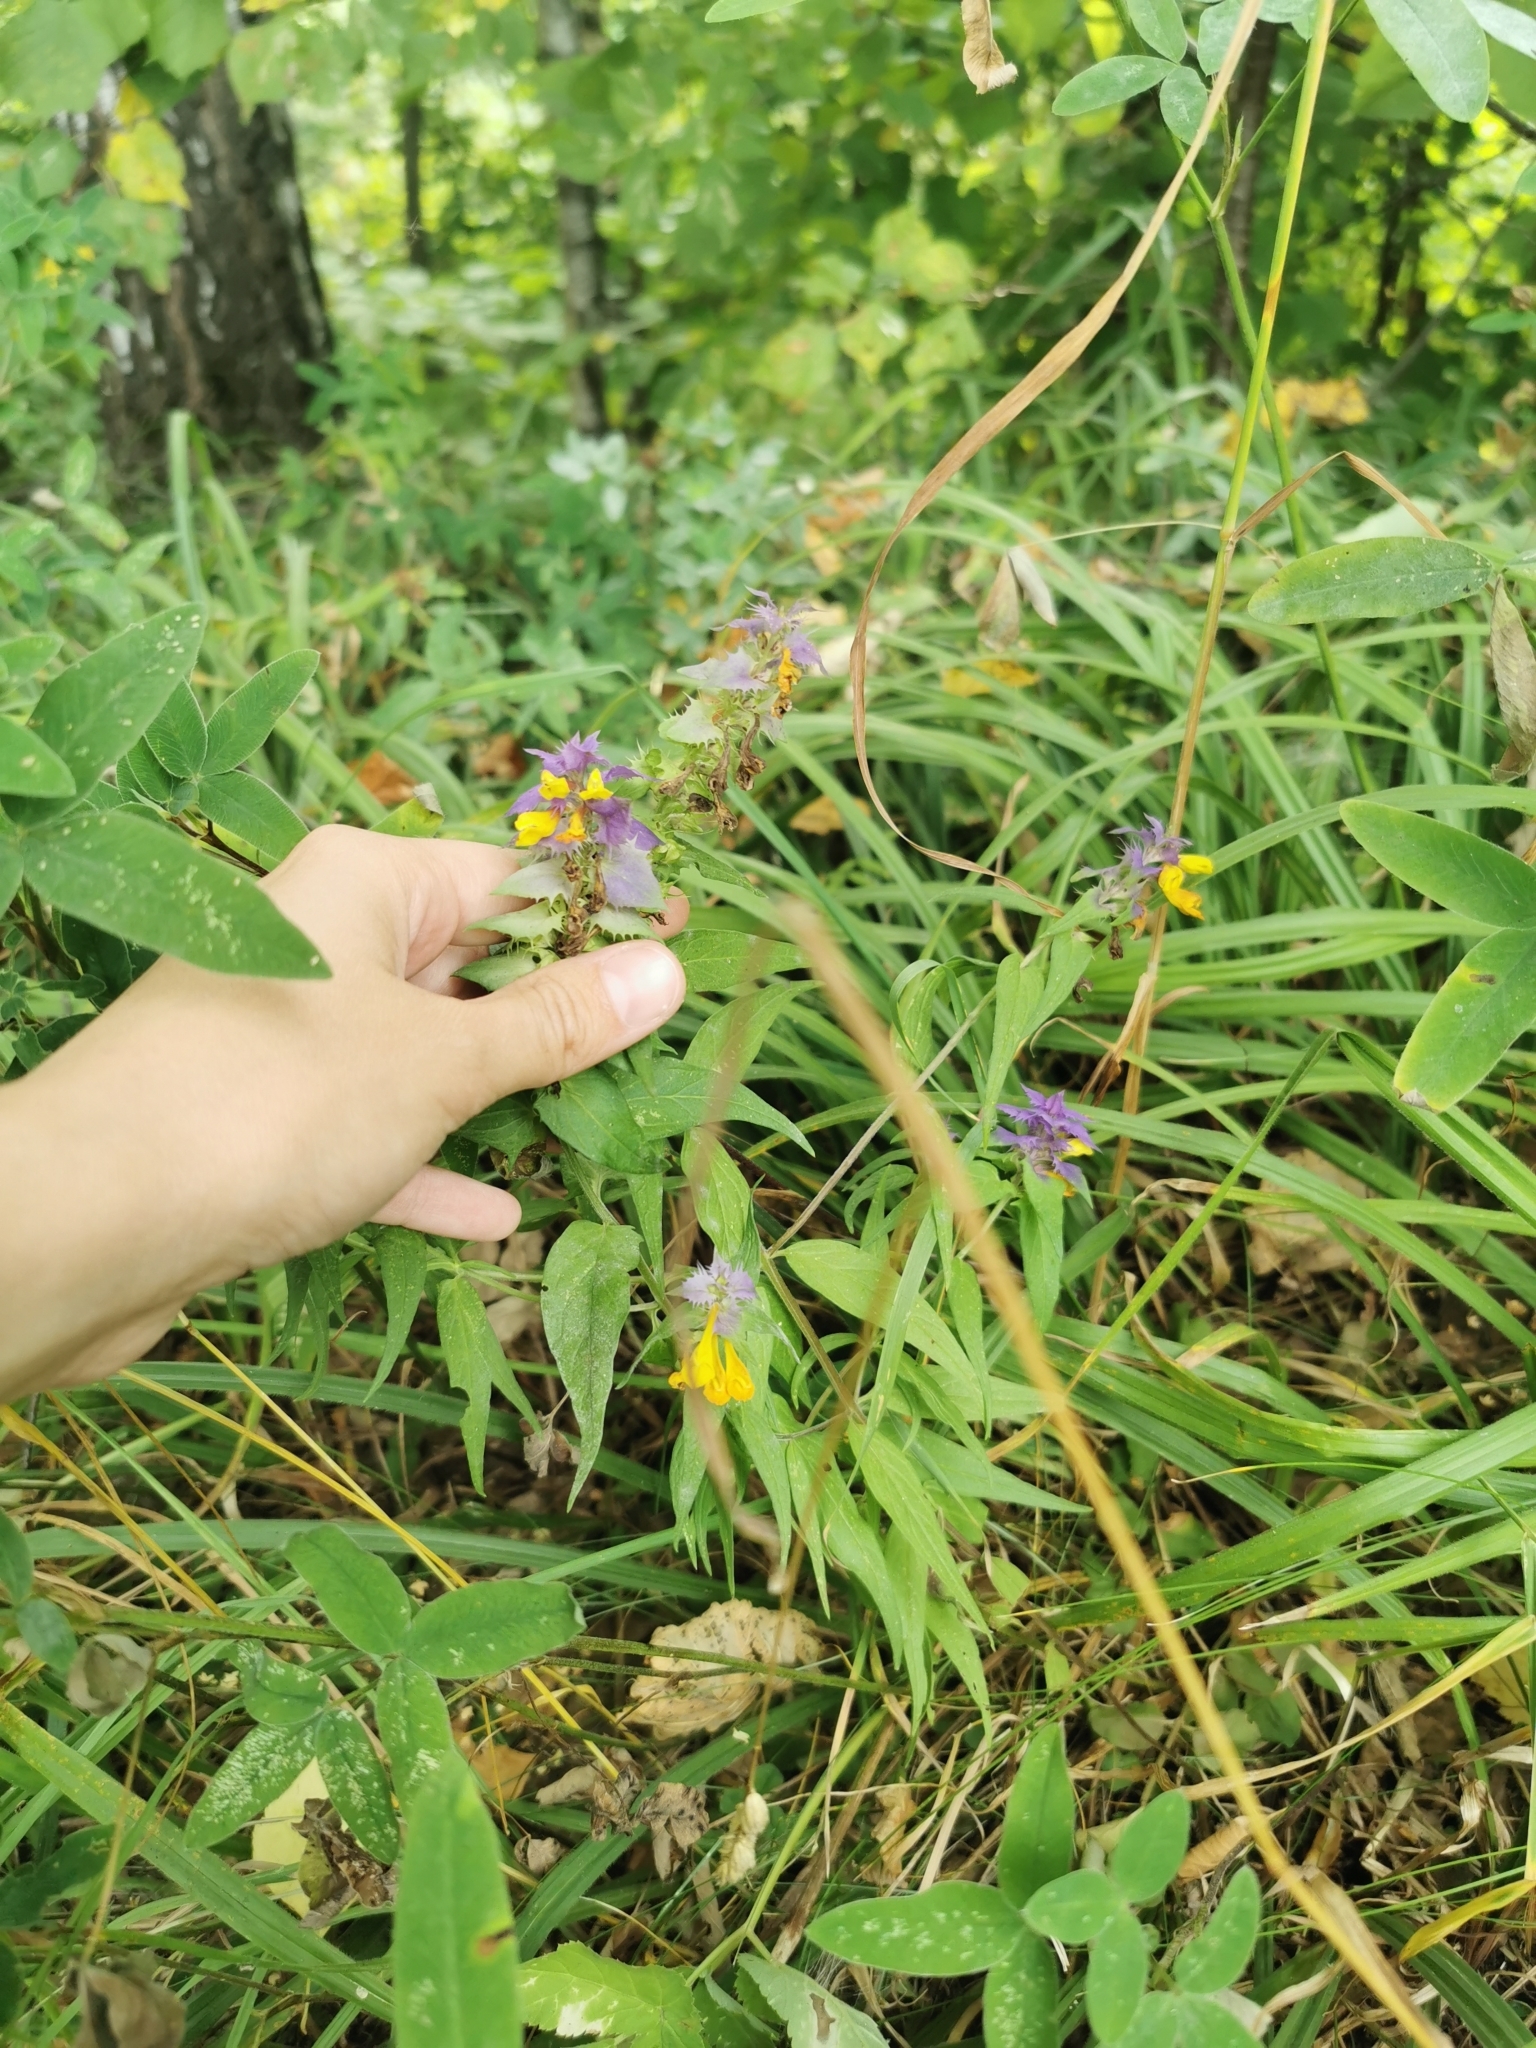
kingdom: Plantae
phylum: Tracheophyta
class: Magnoliopsida
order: Lamiales
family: Orobanchaceae
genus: Melampyrum
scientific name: Melampyrum nemorosum
